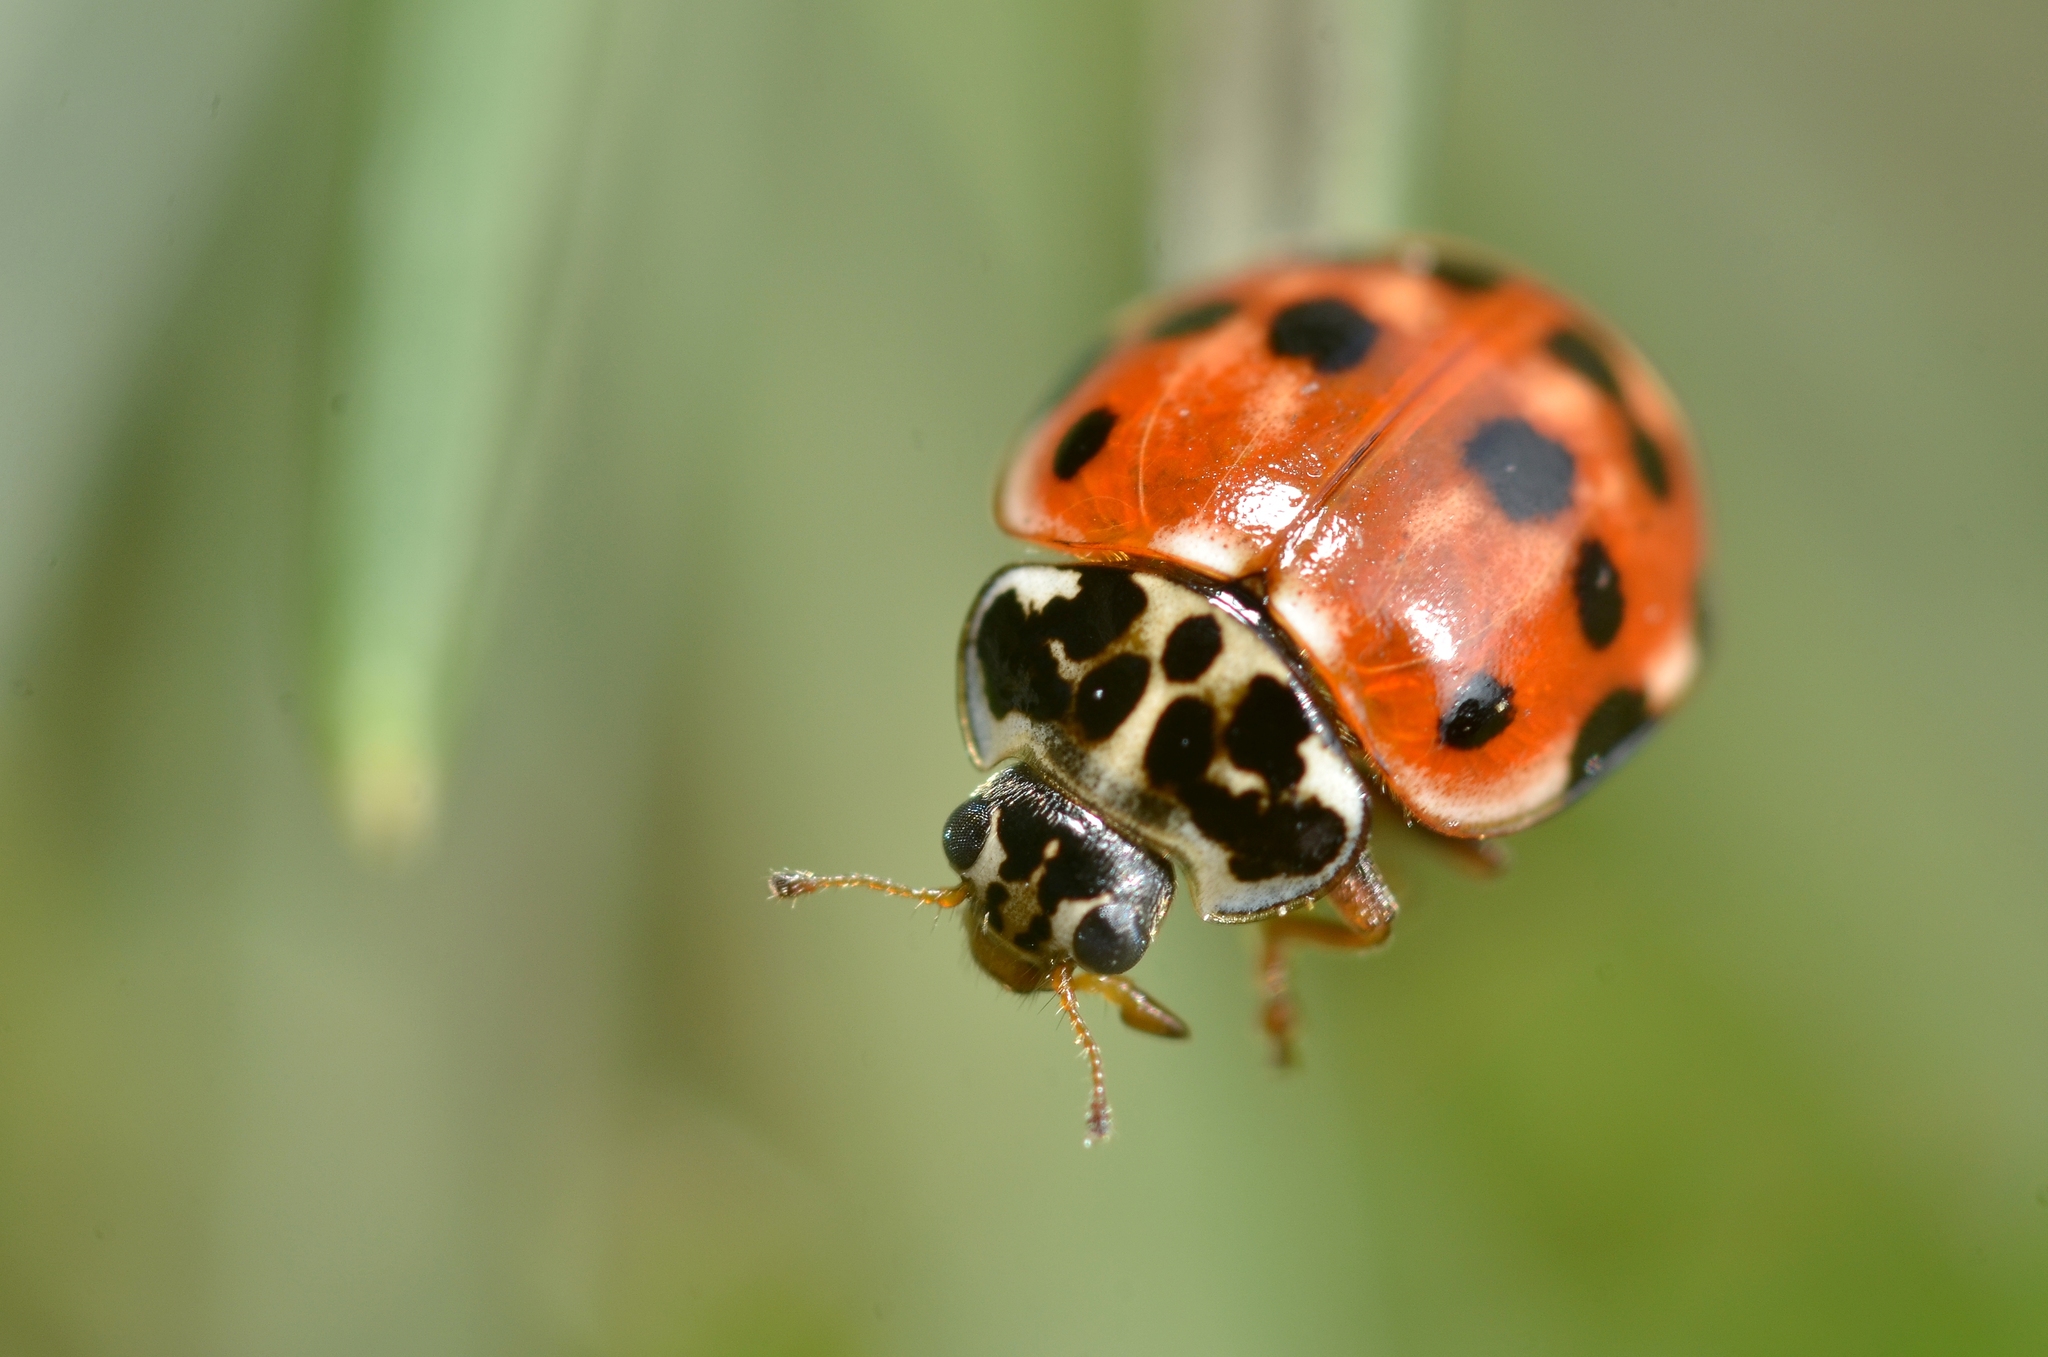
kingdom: Animalia
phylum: Arthropoda
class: Insecta
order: Coleoptera
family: Coccinellidae
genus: Harmonia
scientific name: Harmonia quadripunctata
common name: Cream-streaked ladybird
